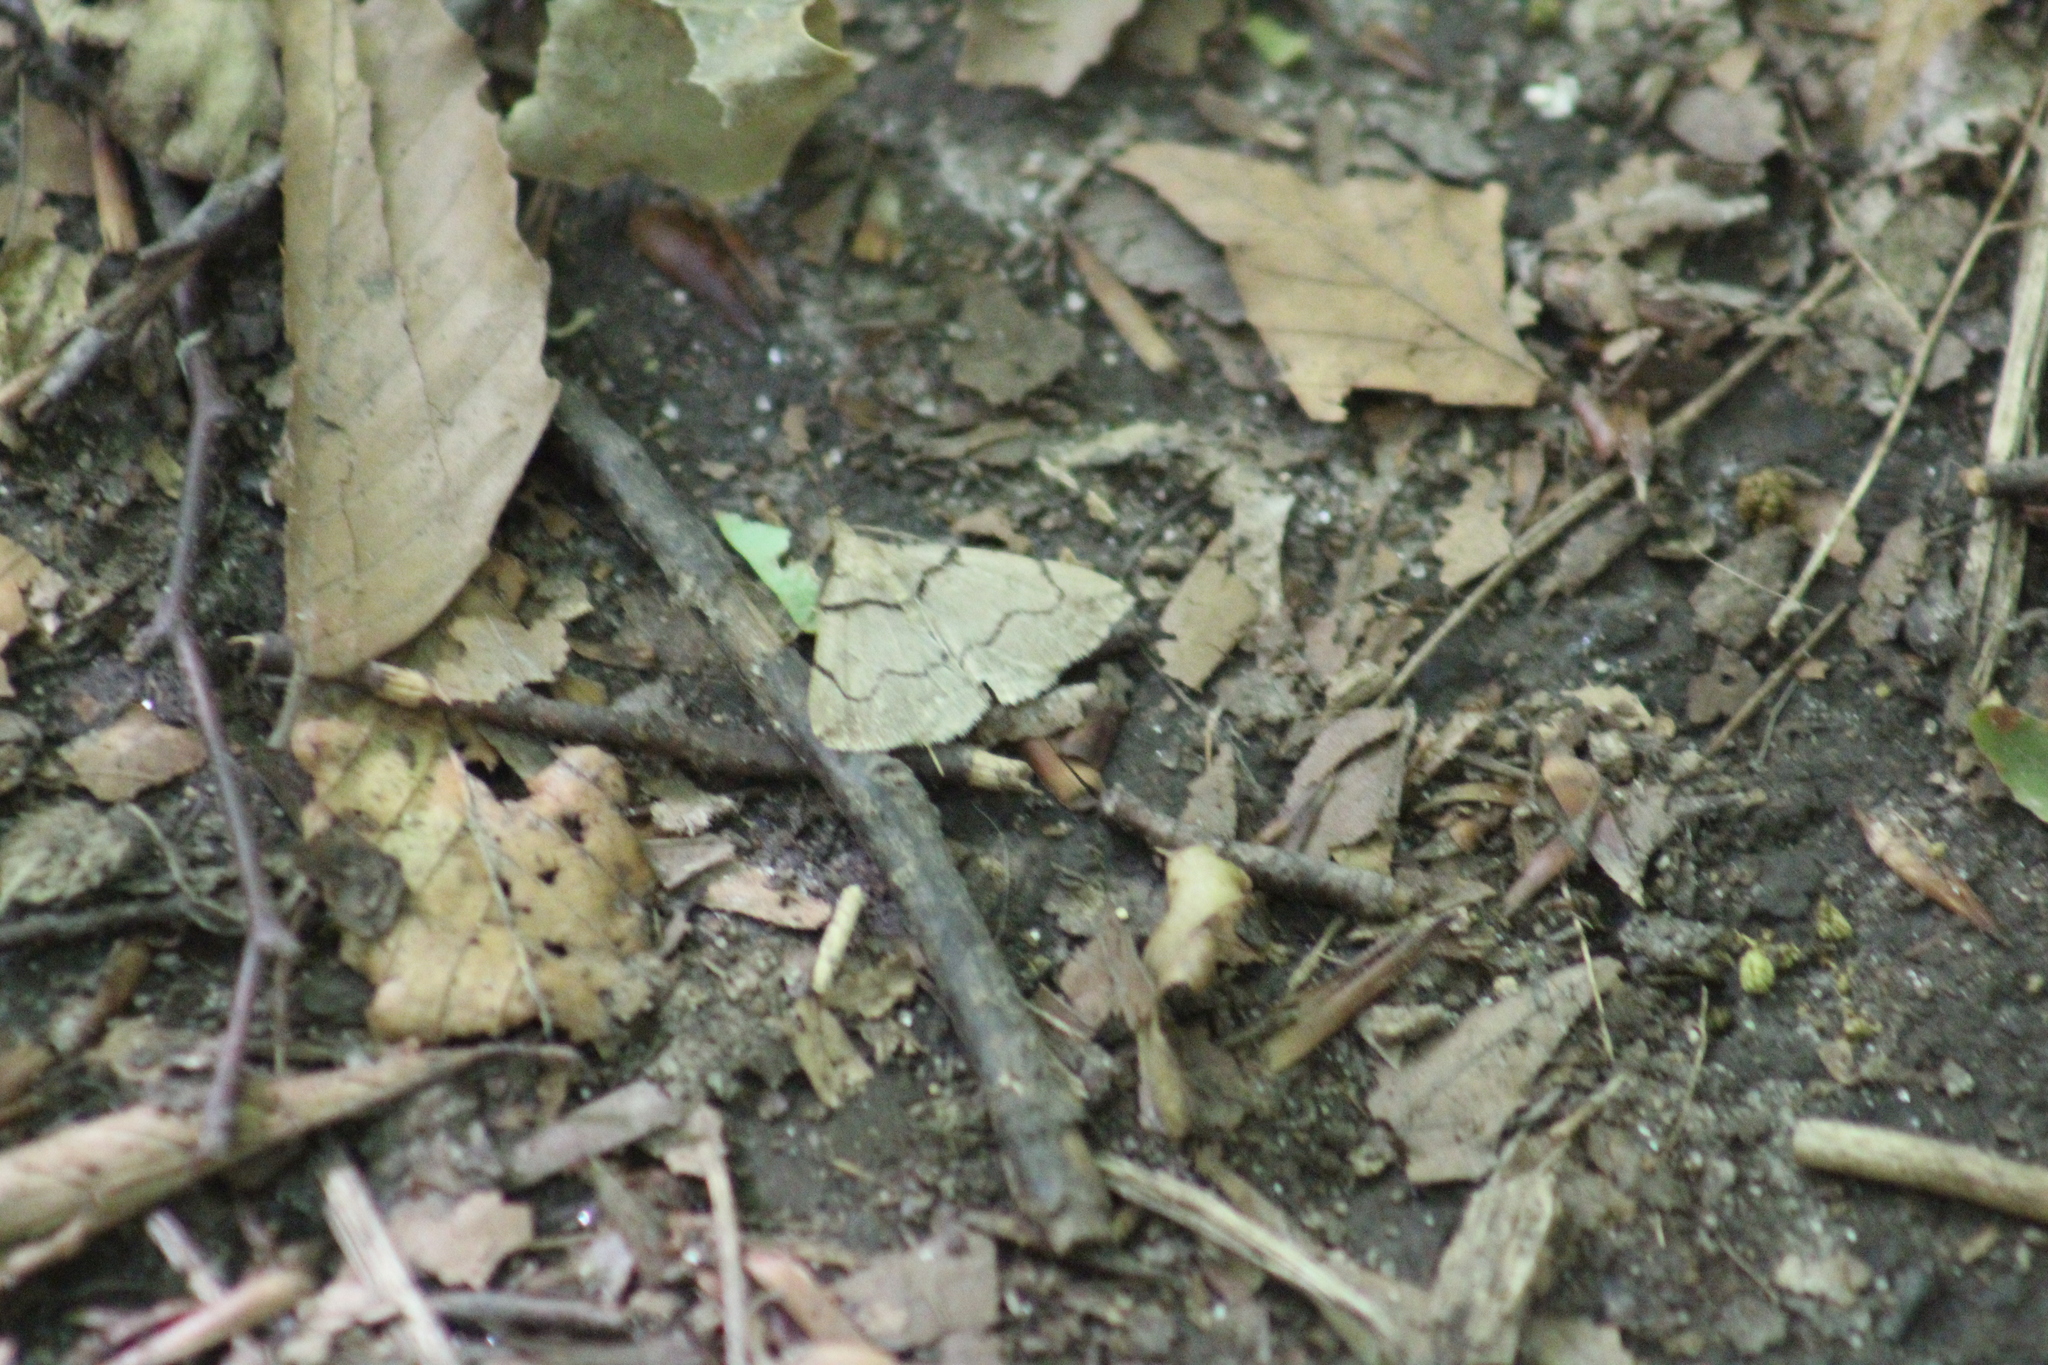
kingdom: Animalia
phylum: Arthropoda
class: Insecta
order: Lepidoptera
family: Erebidae
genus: Zanclognatha
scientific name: Zanclognatha laevigata
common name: Variable fan-foot
